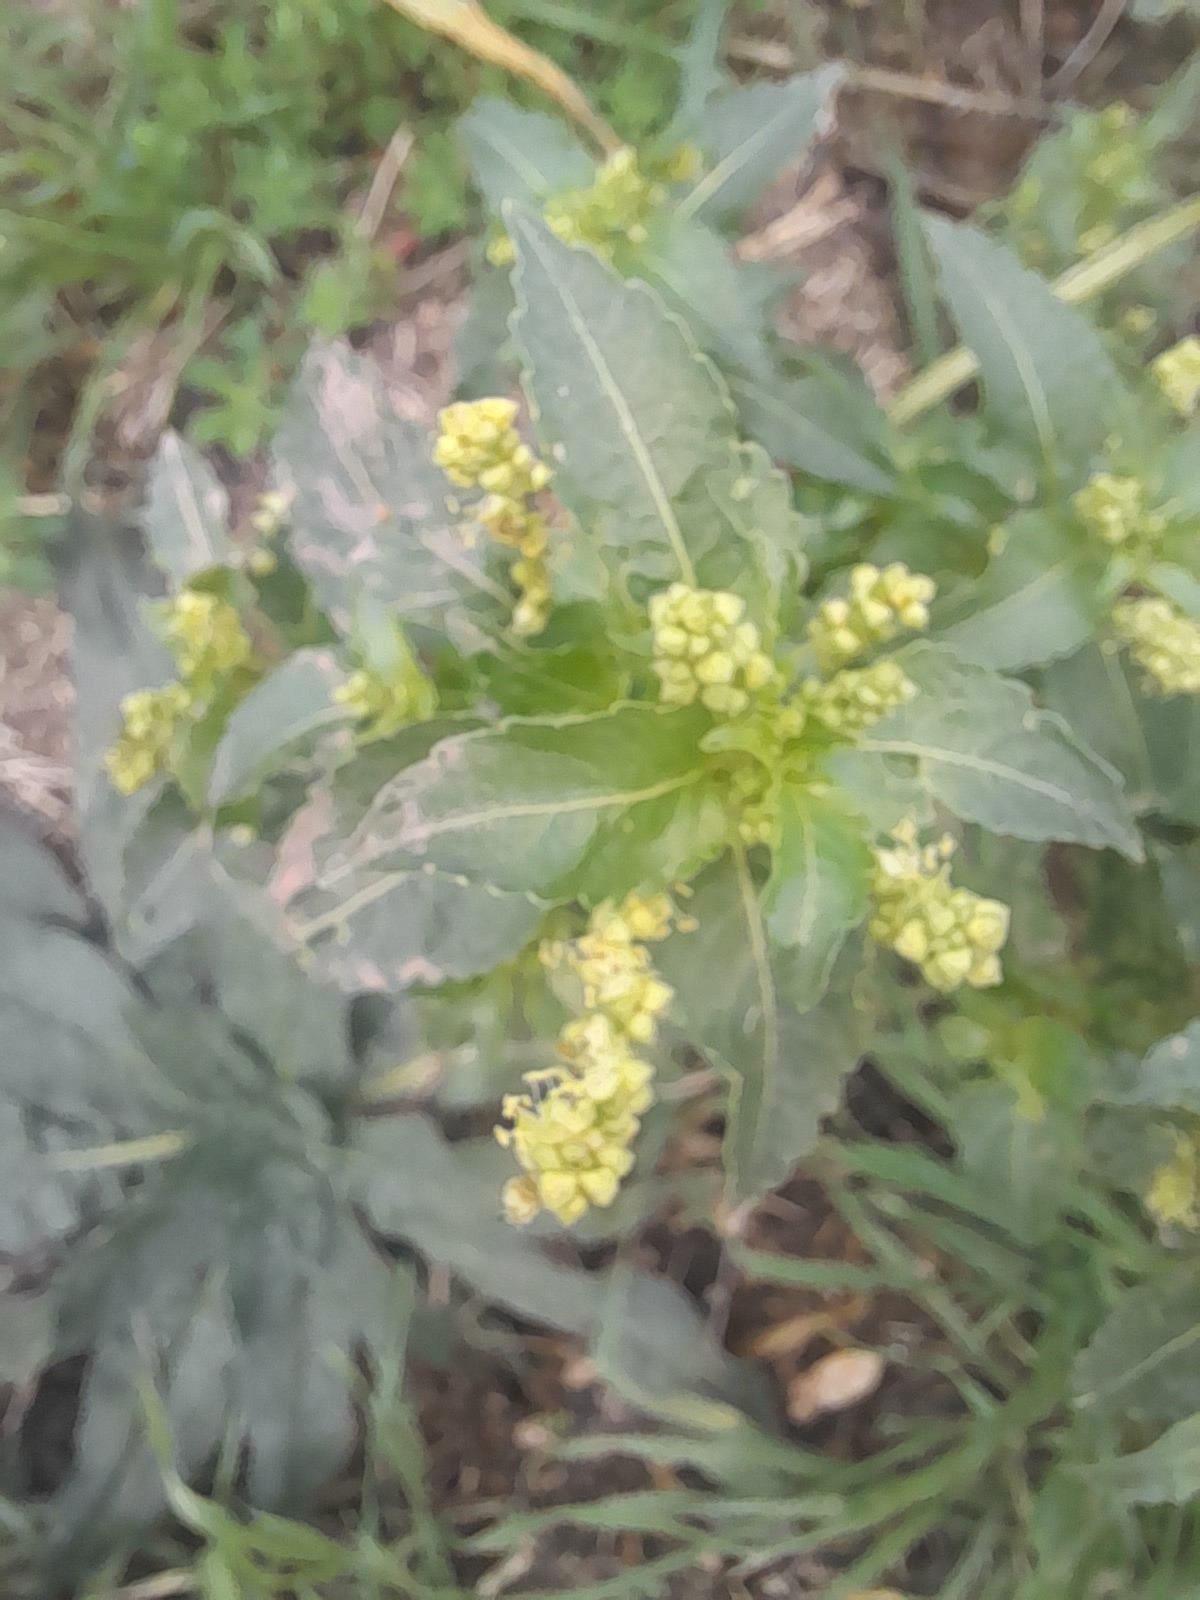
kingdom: Plantae
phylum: Tracheophyta
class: Magnoliopsida
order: Malpighiales
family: Euphorbiaceae
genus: Mercurialis
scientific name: Mercurialis annua
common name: Annual mercury
